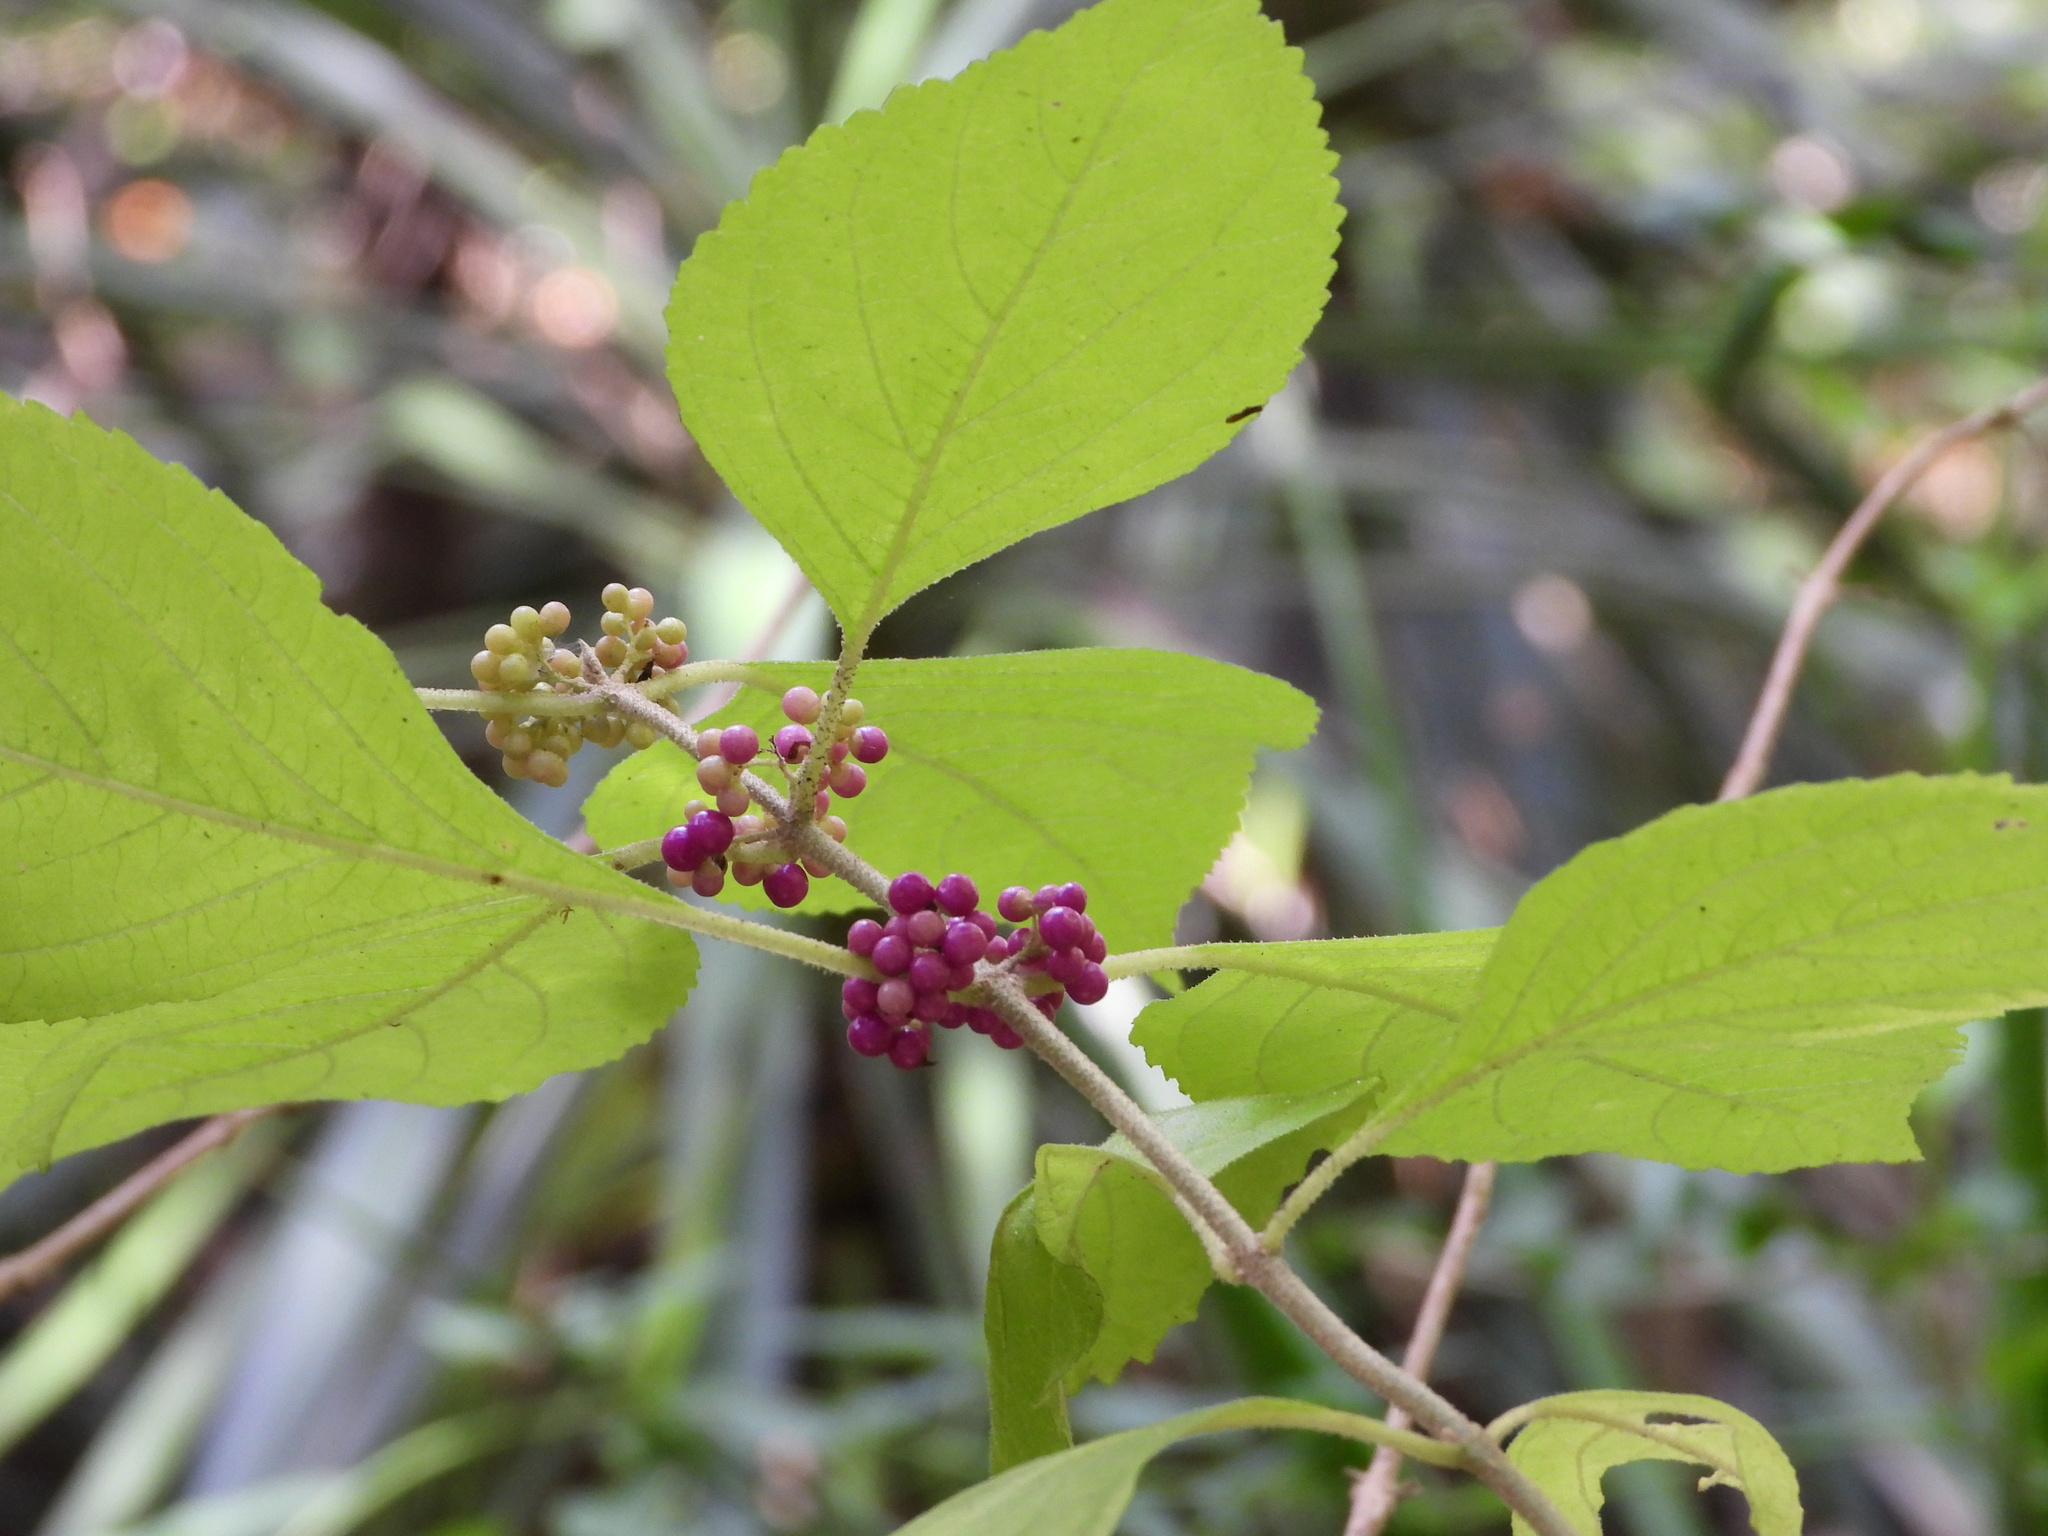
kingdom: Plantae
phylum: Tracheophyta
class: Magnoliopsida
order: Lamiales
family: Lamiaceae
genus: Callicarpa
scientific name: Callicarpa americana
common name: American beautyberry
